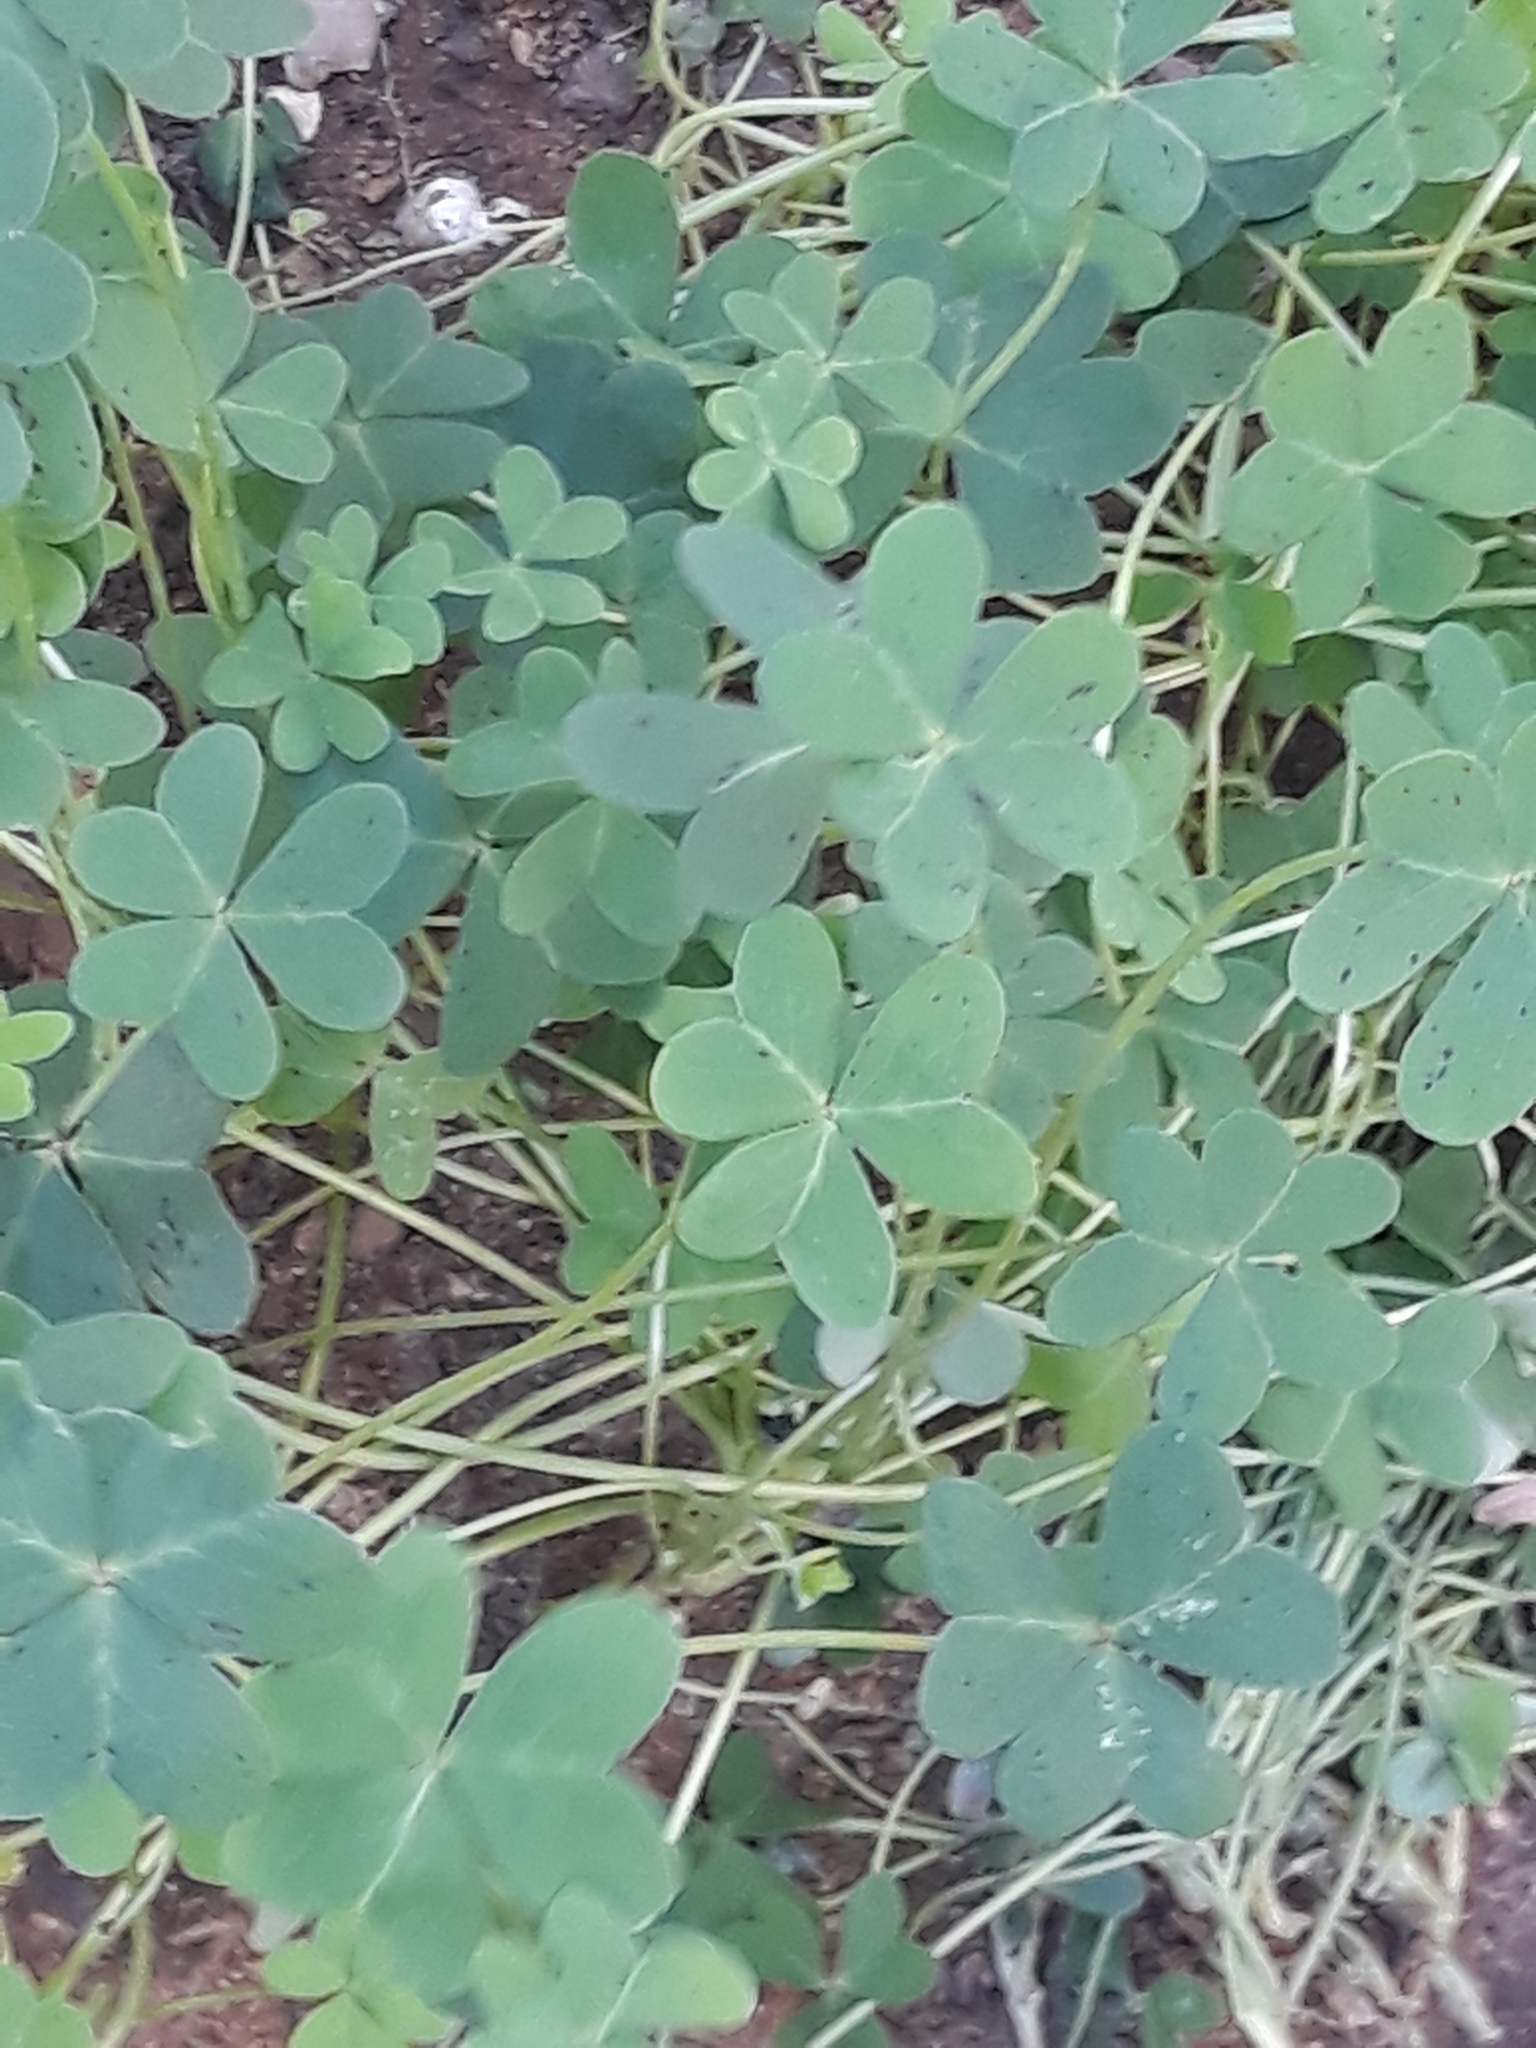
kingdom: Plantae
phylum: Tracheophyta
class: Magnoliopsida
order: Oxalidales
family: Oxalidaceae
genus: Oxalis
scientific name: Oxalis pes-caprae
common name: Bermuda-buttercup
